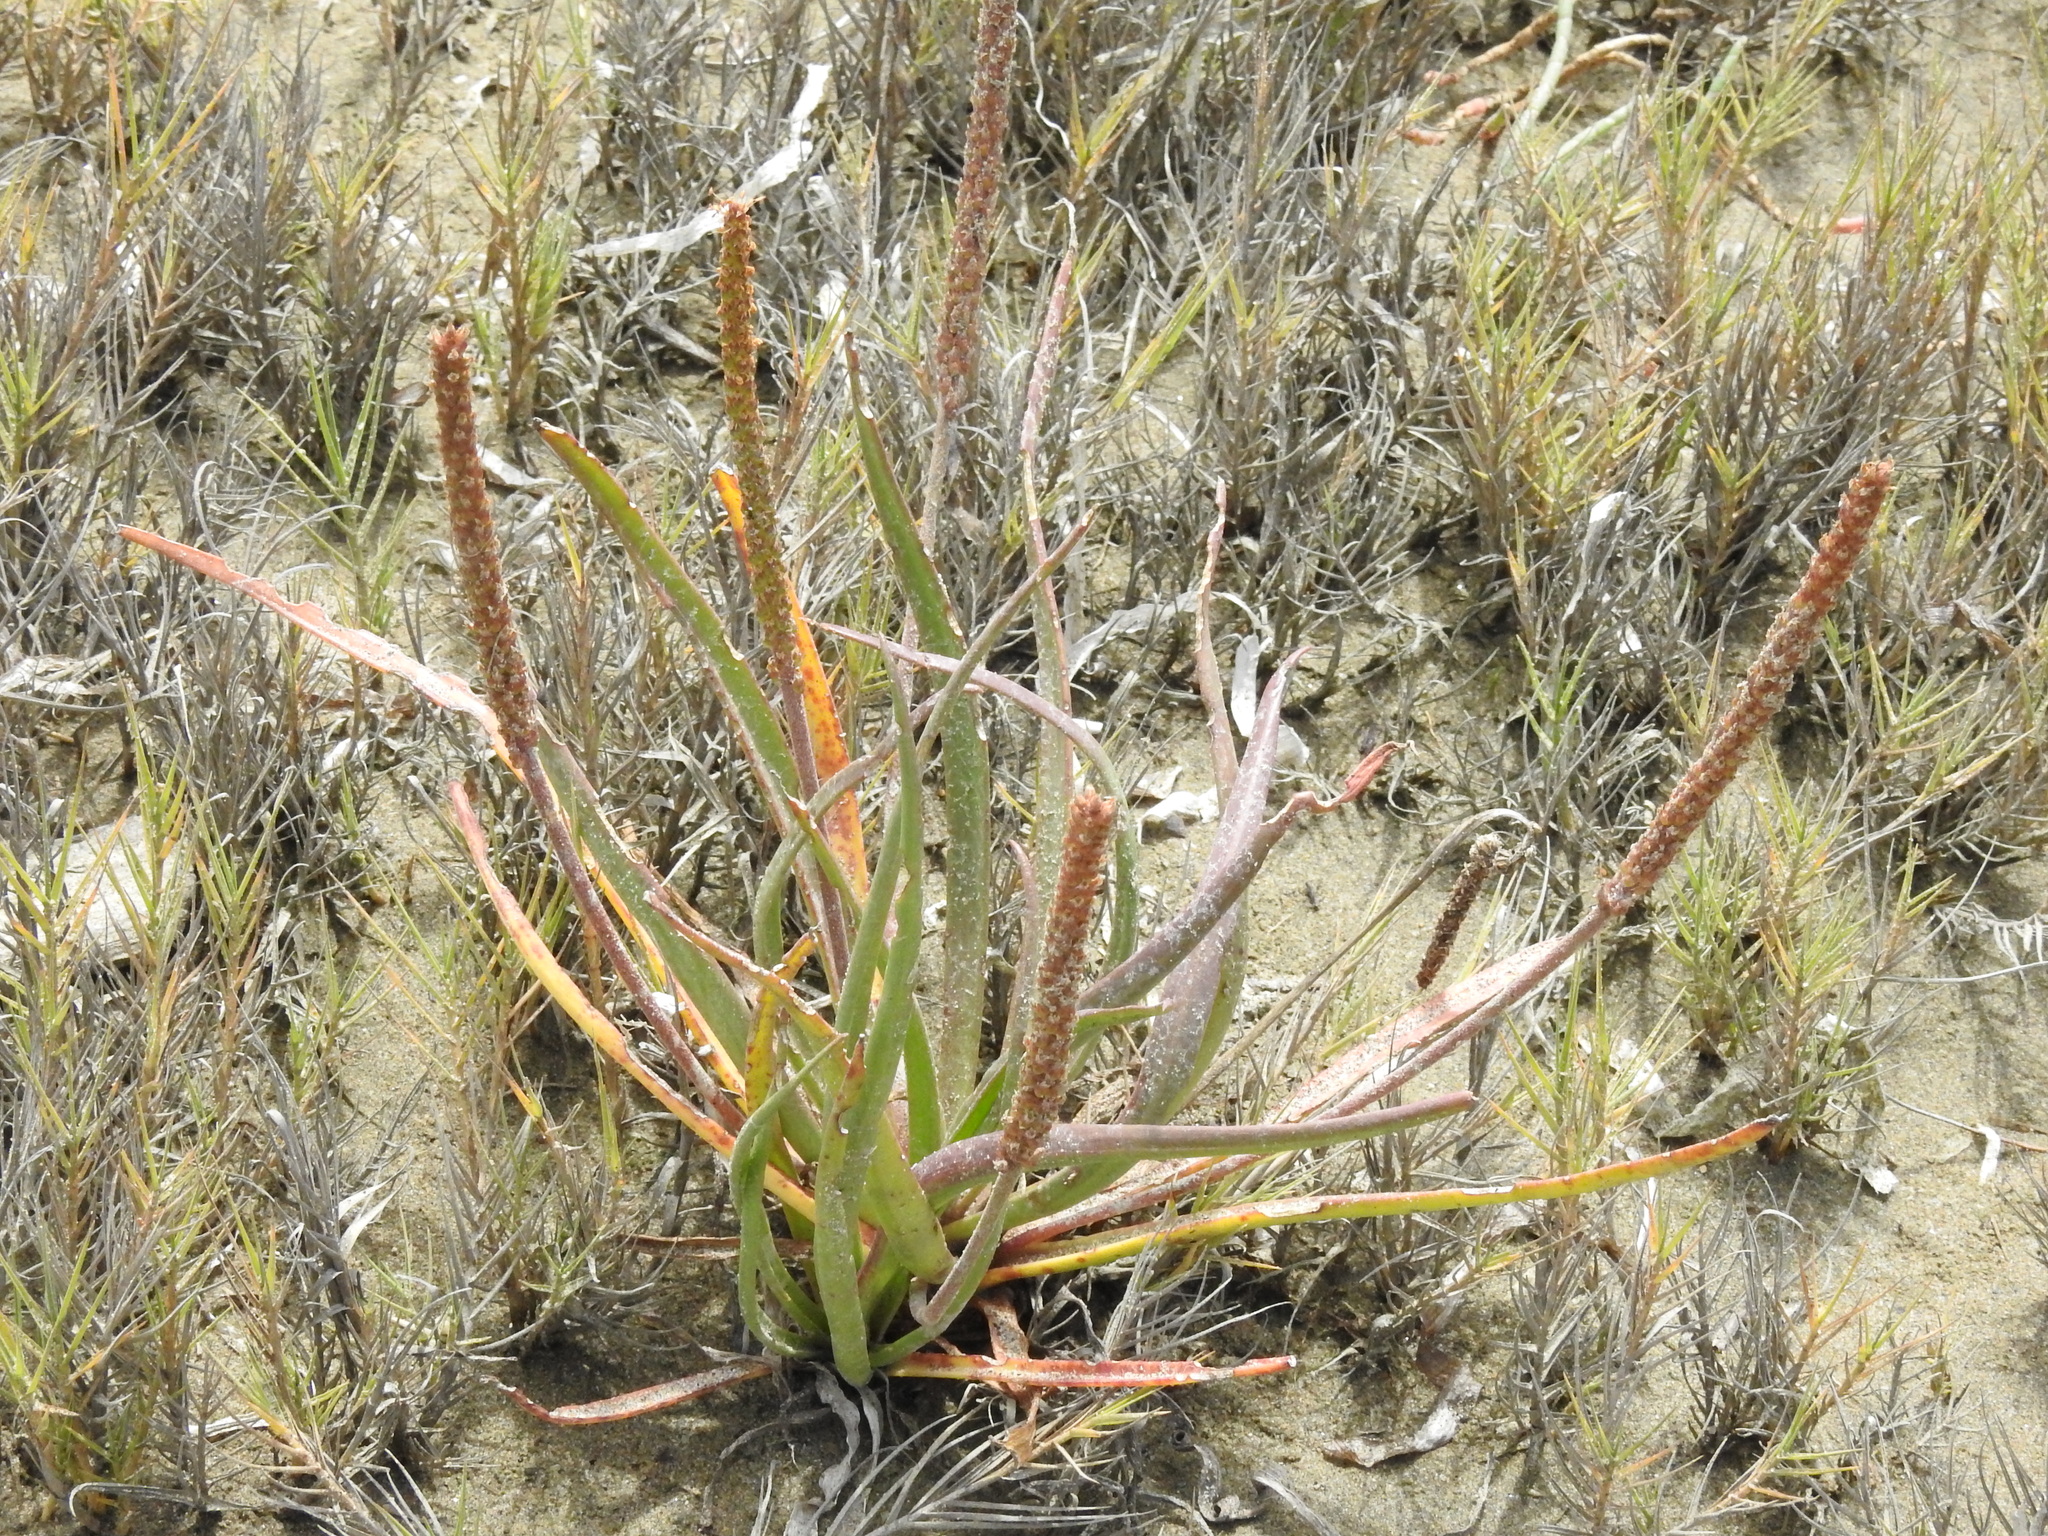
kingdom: Plantae
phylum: Tracheophyta
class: Magnoliopsida
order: Lamiales
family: Plantaginaceae
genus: Plantago
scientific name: Plantago maritima
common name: Sea plantain
